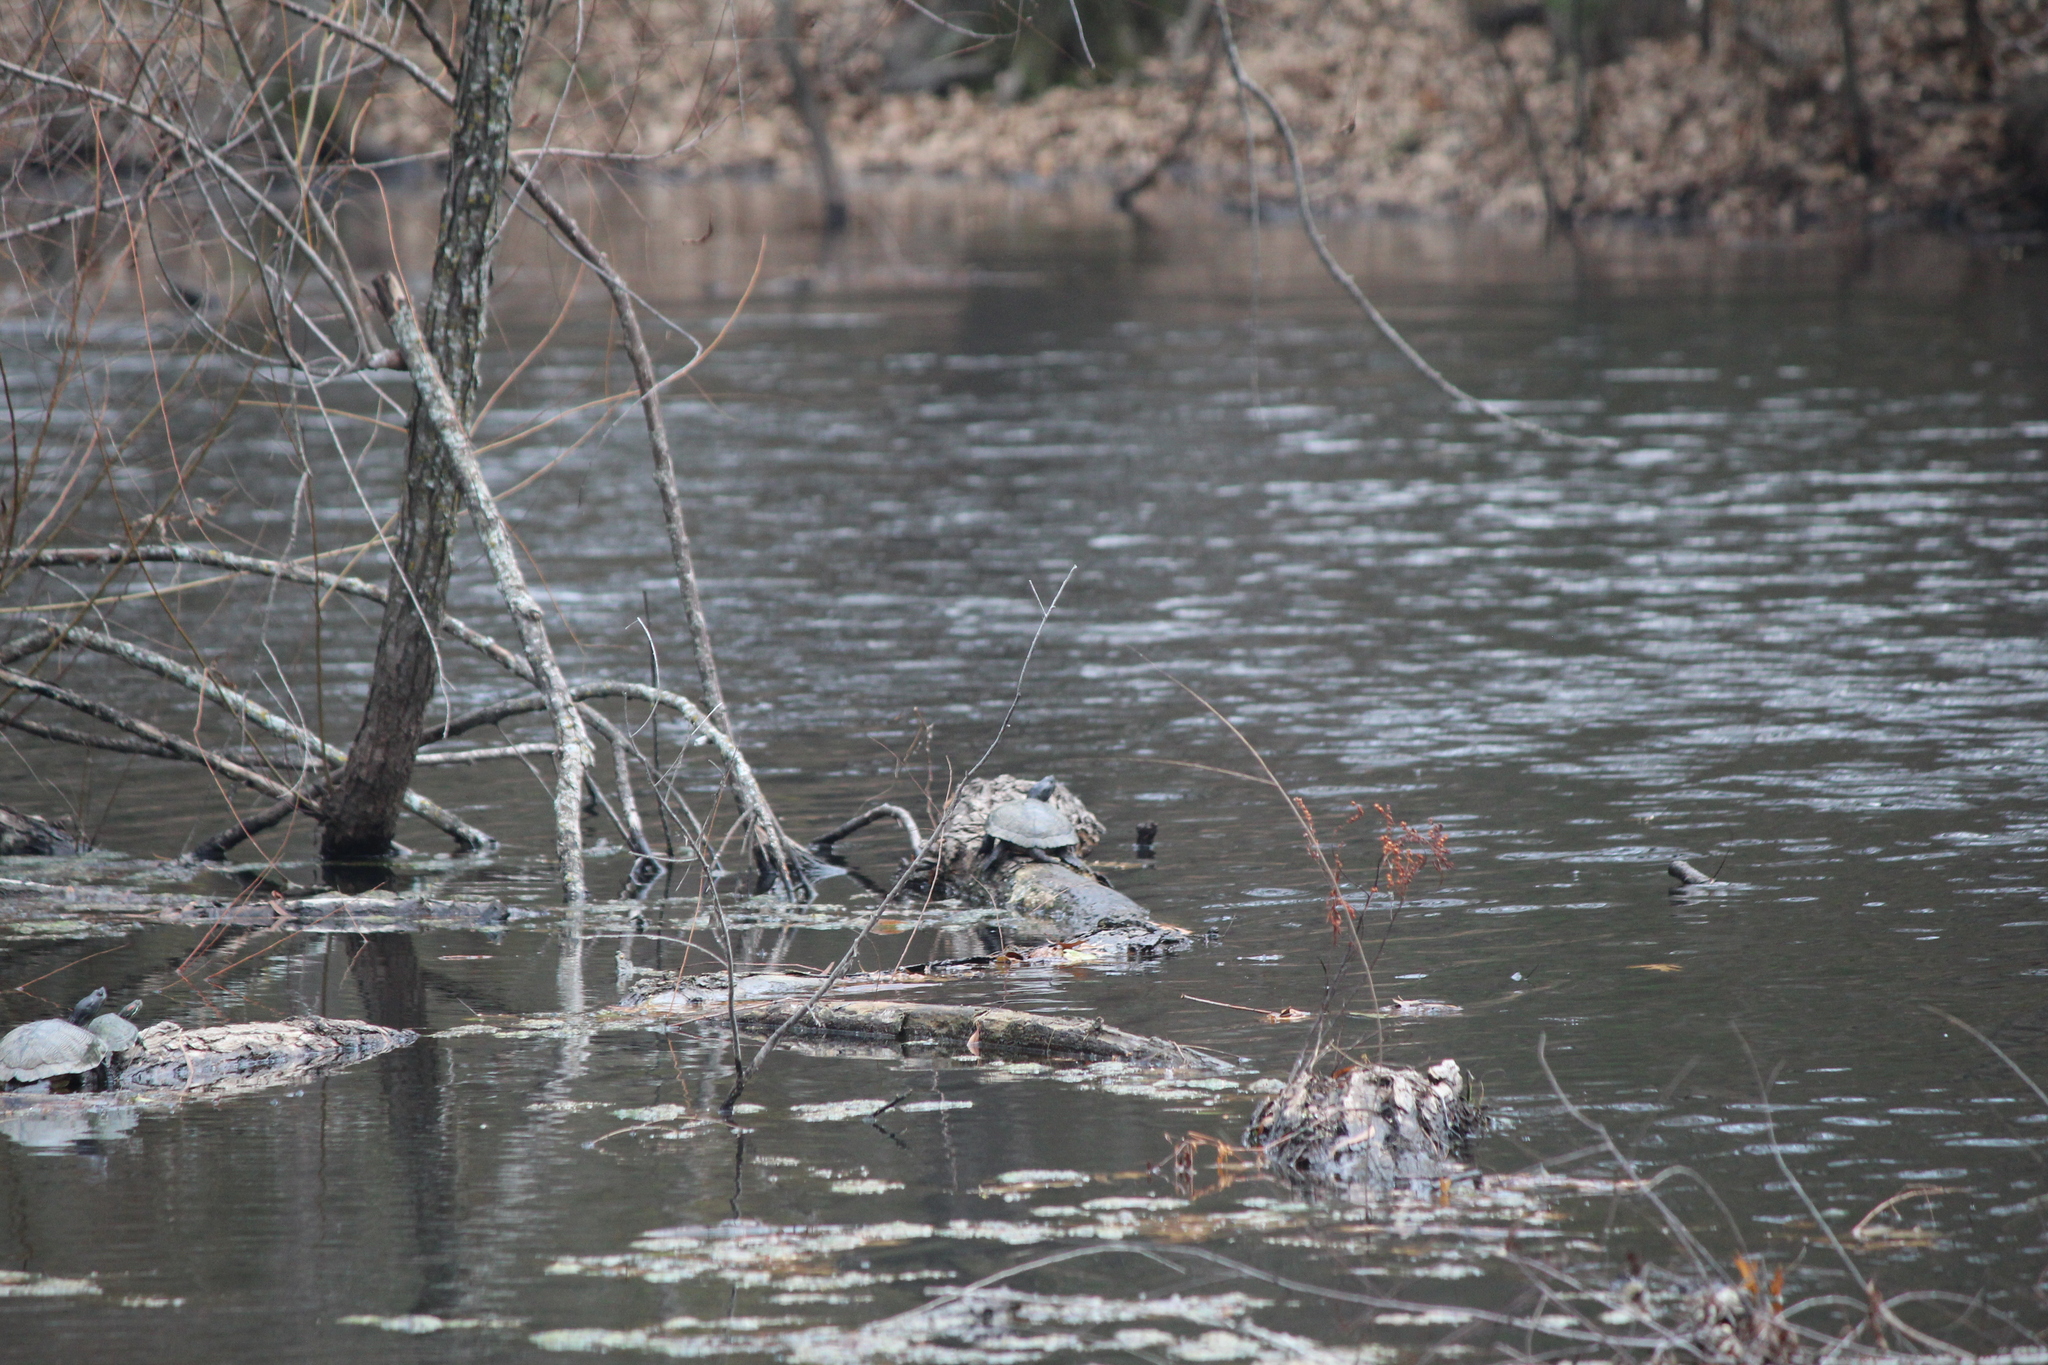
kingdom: Animalia
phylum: Chordata
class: Testudines
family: Emydidae
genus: Trachemys
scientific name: Trachemys scripta
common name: Slider
